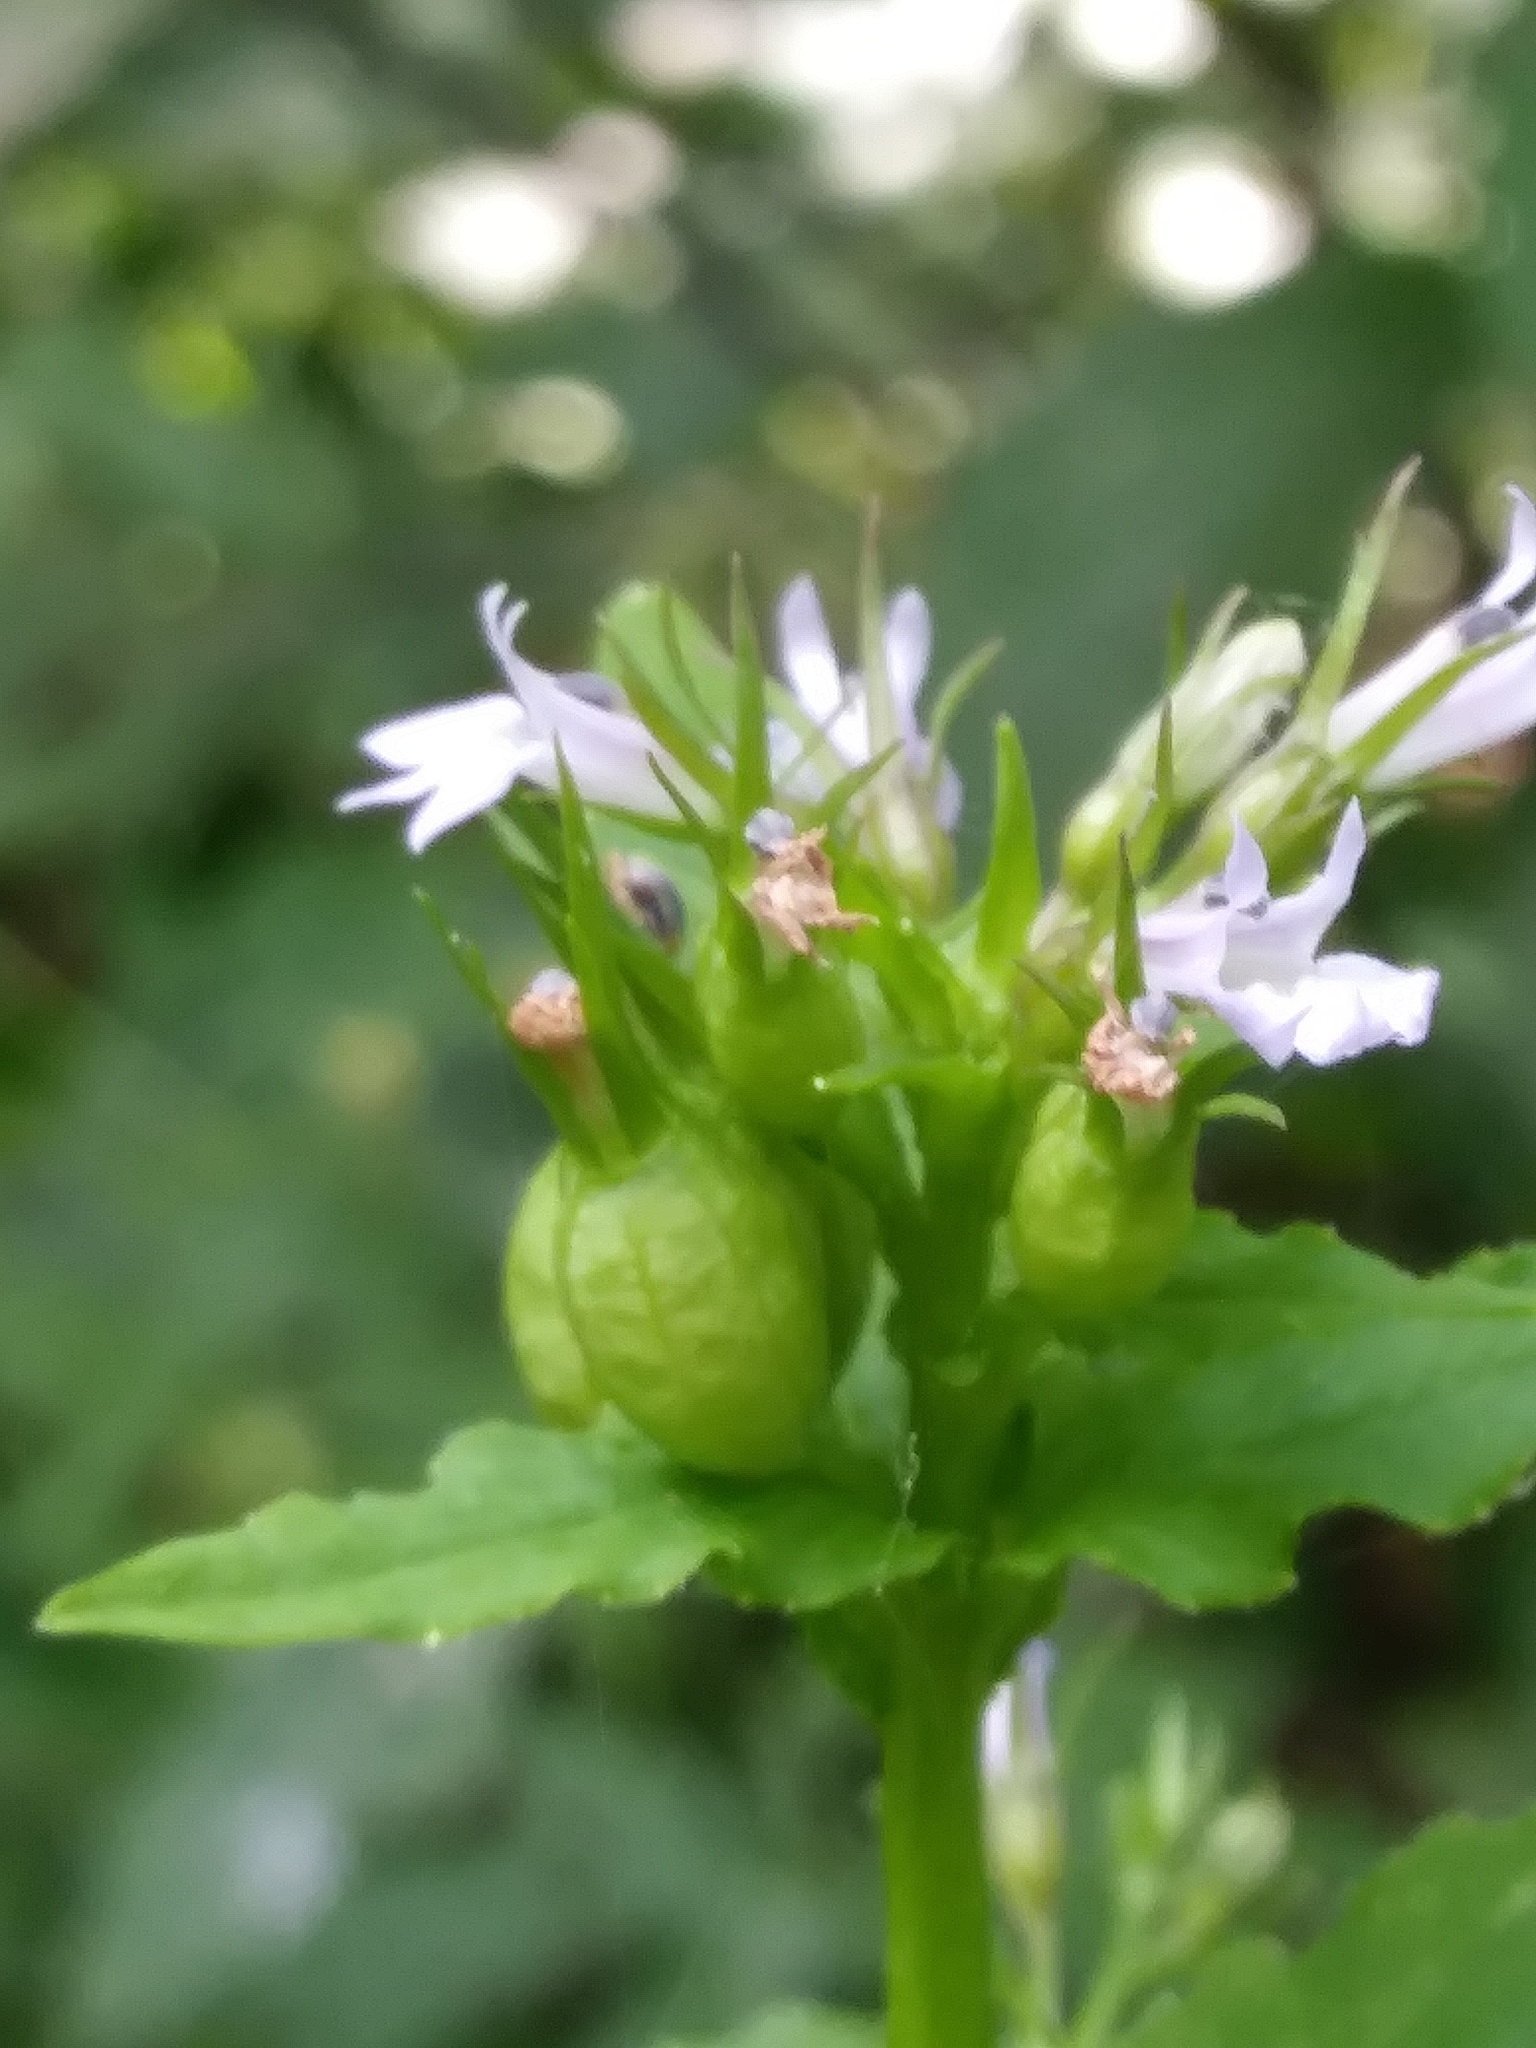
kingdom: Plantae
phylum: Tracheophyta
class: Magnoliopsida
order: Asterales
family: Campanulaceae
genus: Lobelia
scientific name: Lobelia inflata
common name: Indian tobacco
